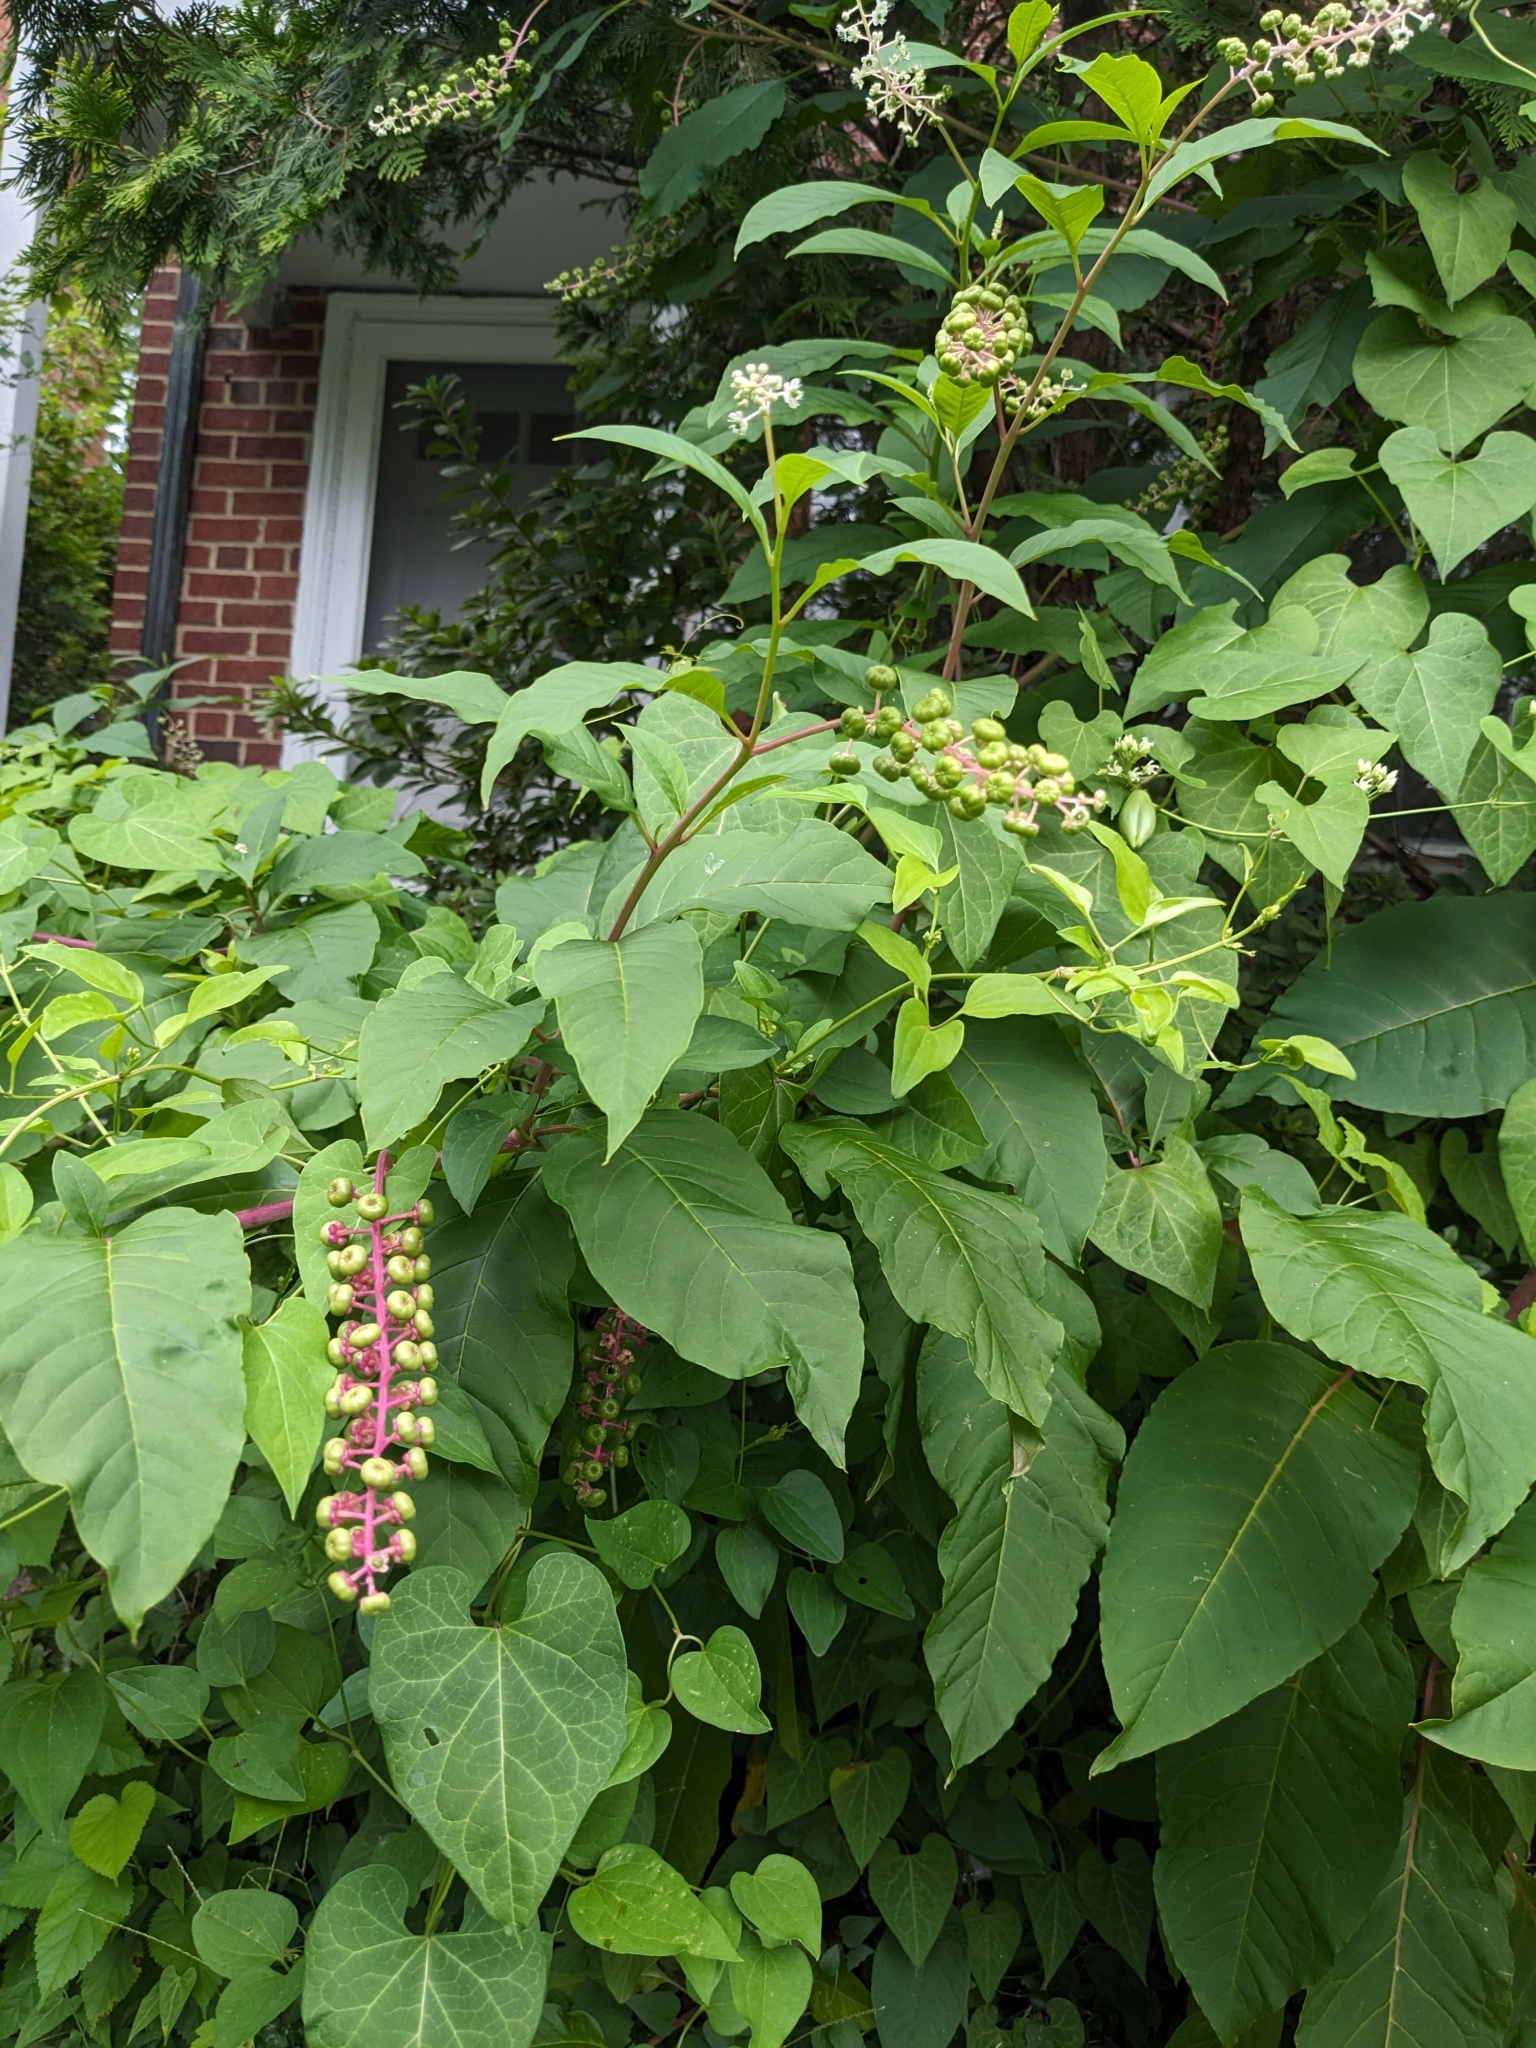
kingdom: Plantae
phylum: Tracheophyta
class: Magnoliopsida
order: Caryophyllales
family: Phytolaccaceae
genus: Phytolacca
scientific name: Phytolacca americana
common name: American pokeweed
